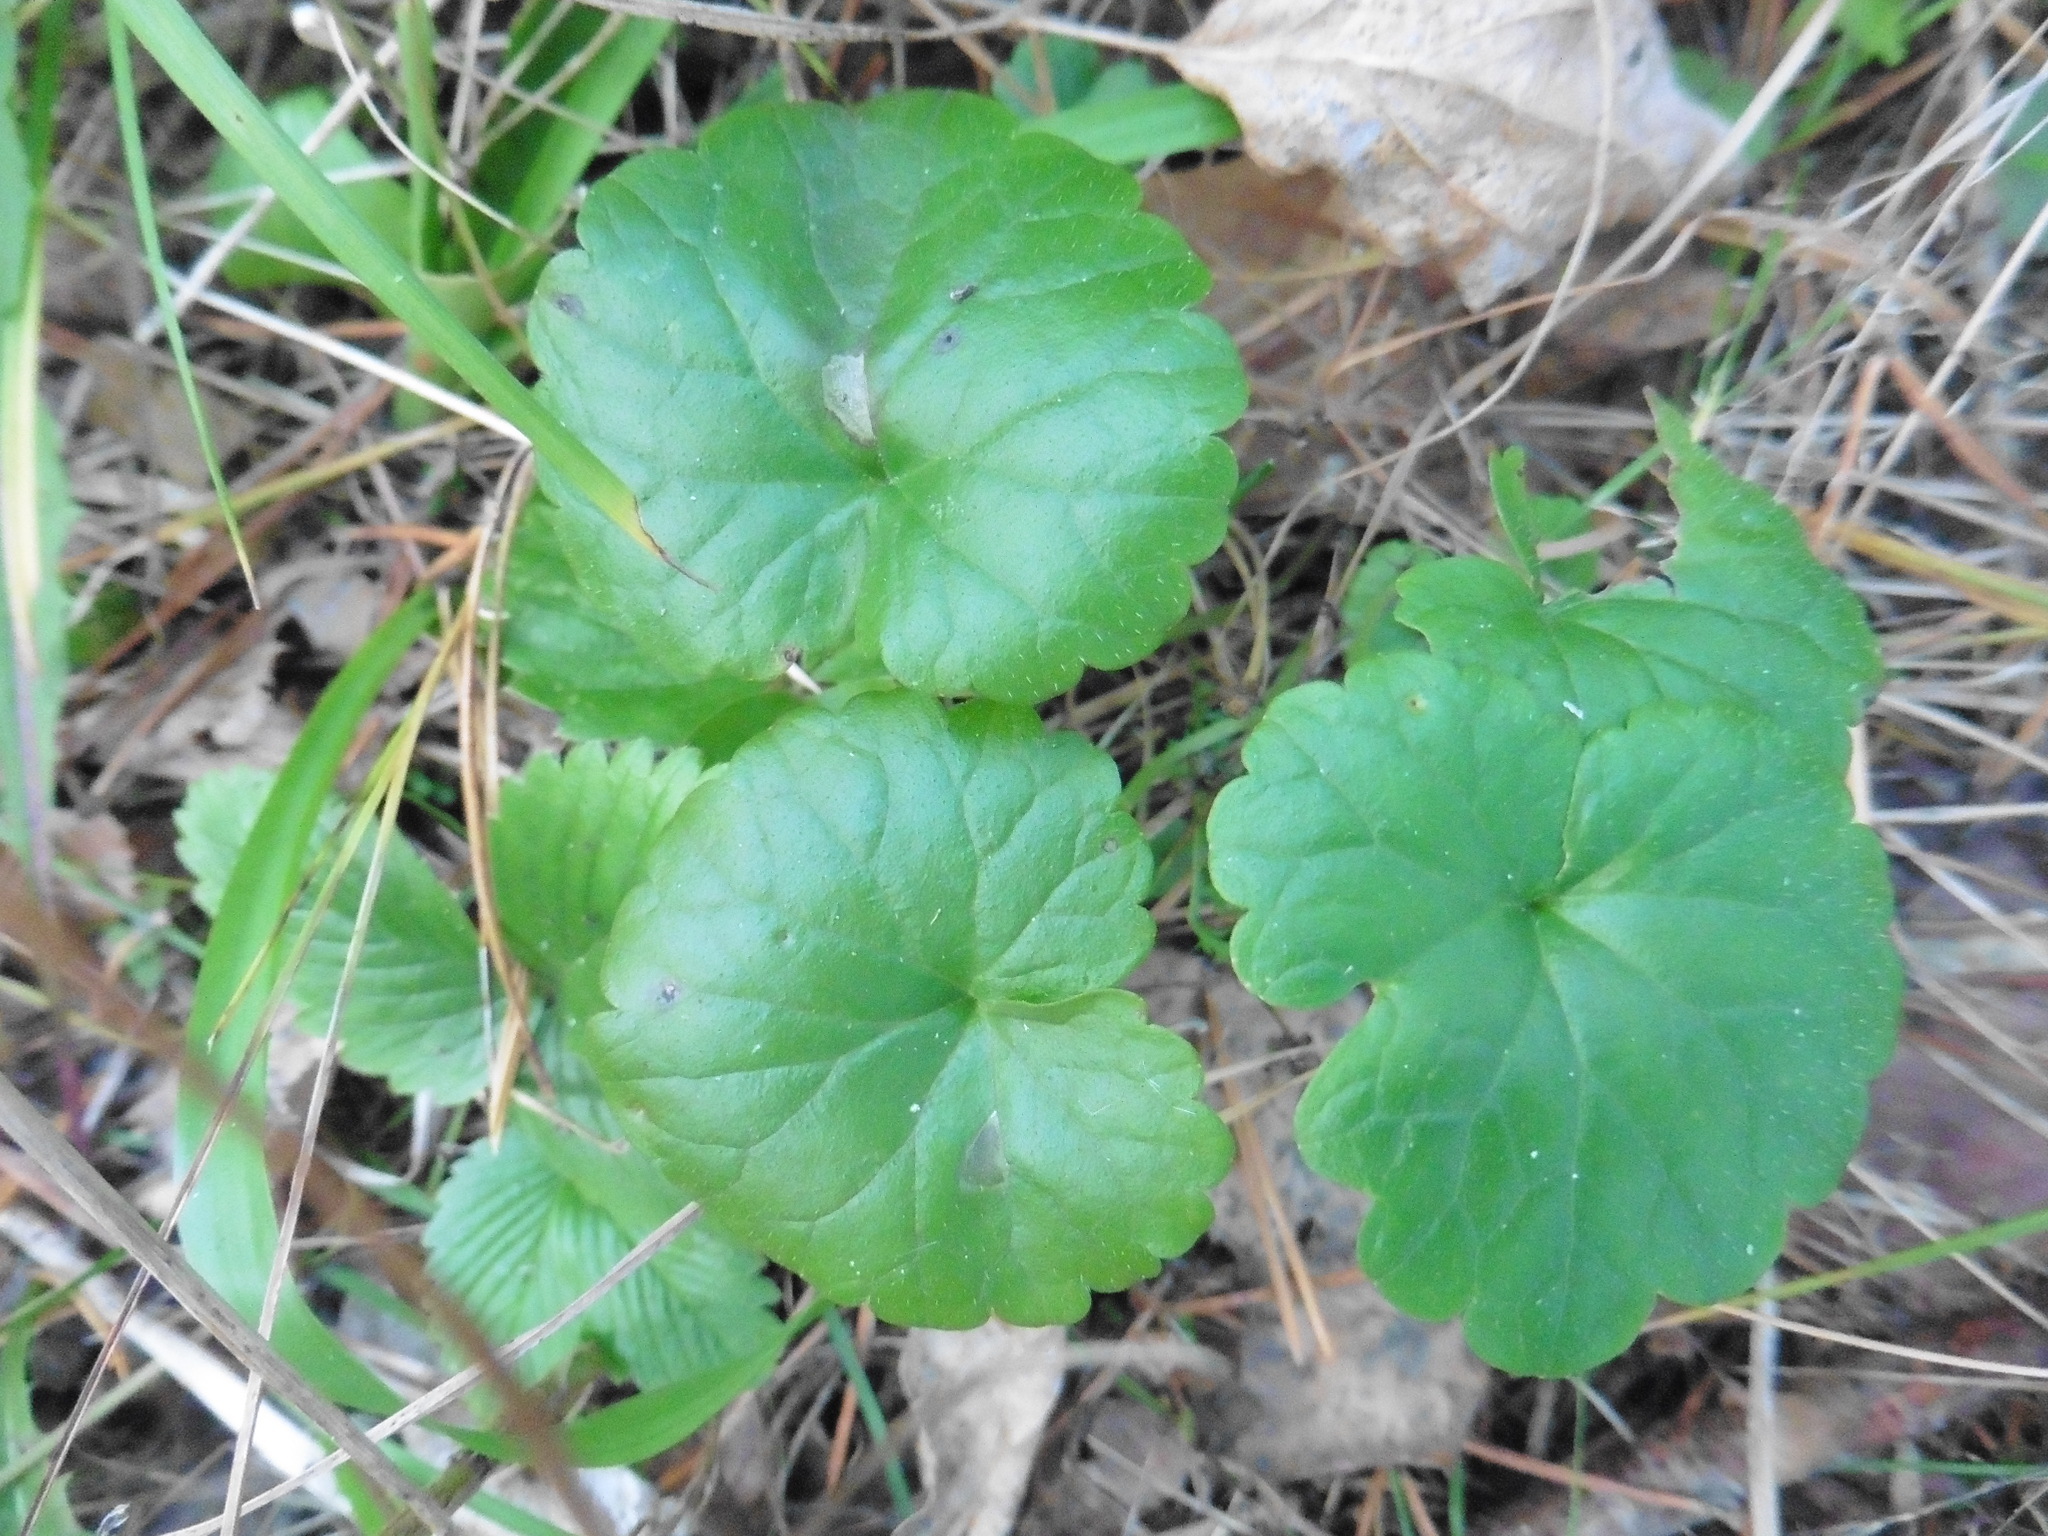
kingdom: Plantae
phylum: Tracheophyta
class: Magnoliopsida
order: Lamiales
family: Lamiaceae
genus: Glechoma
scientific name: Glechoma hederacea
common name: Ground ivy
